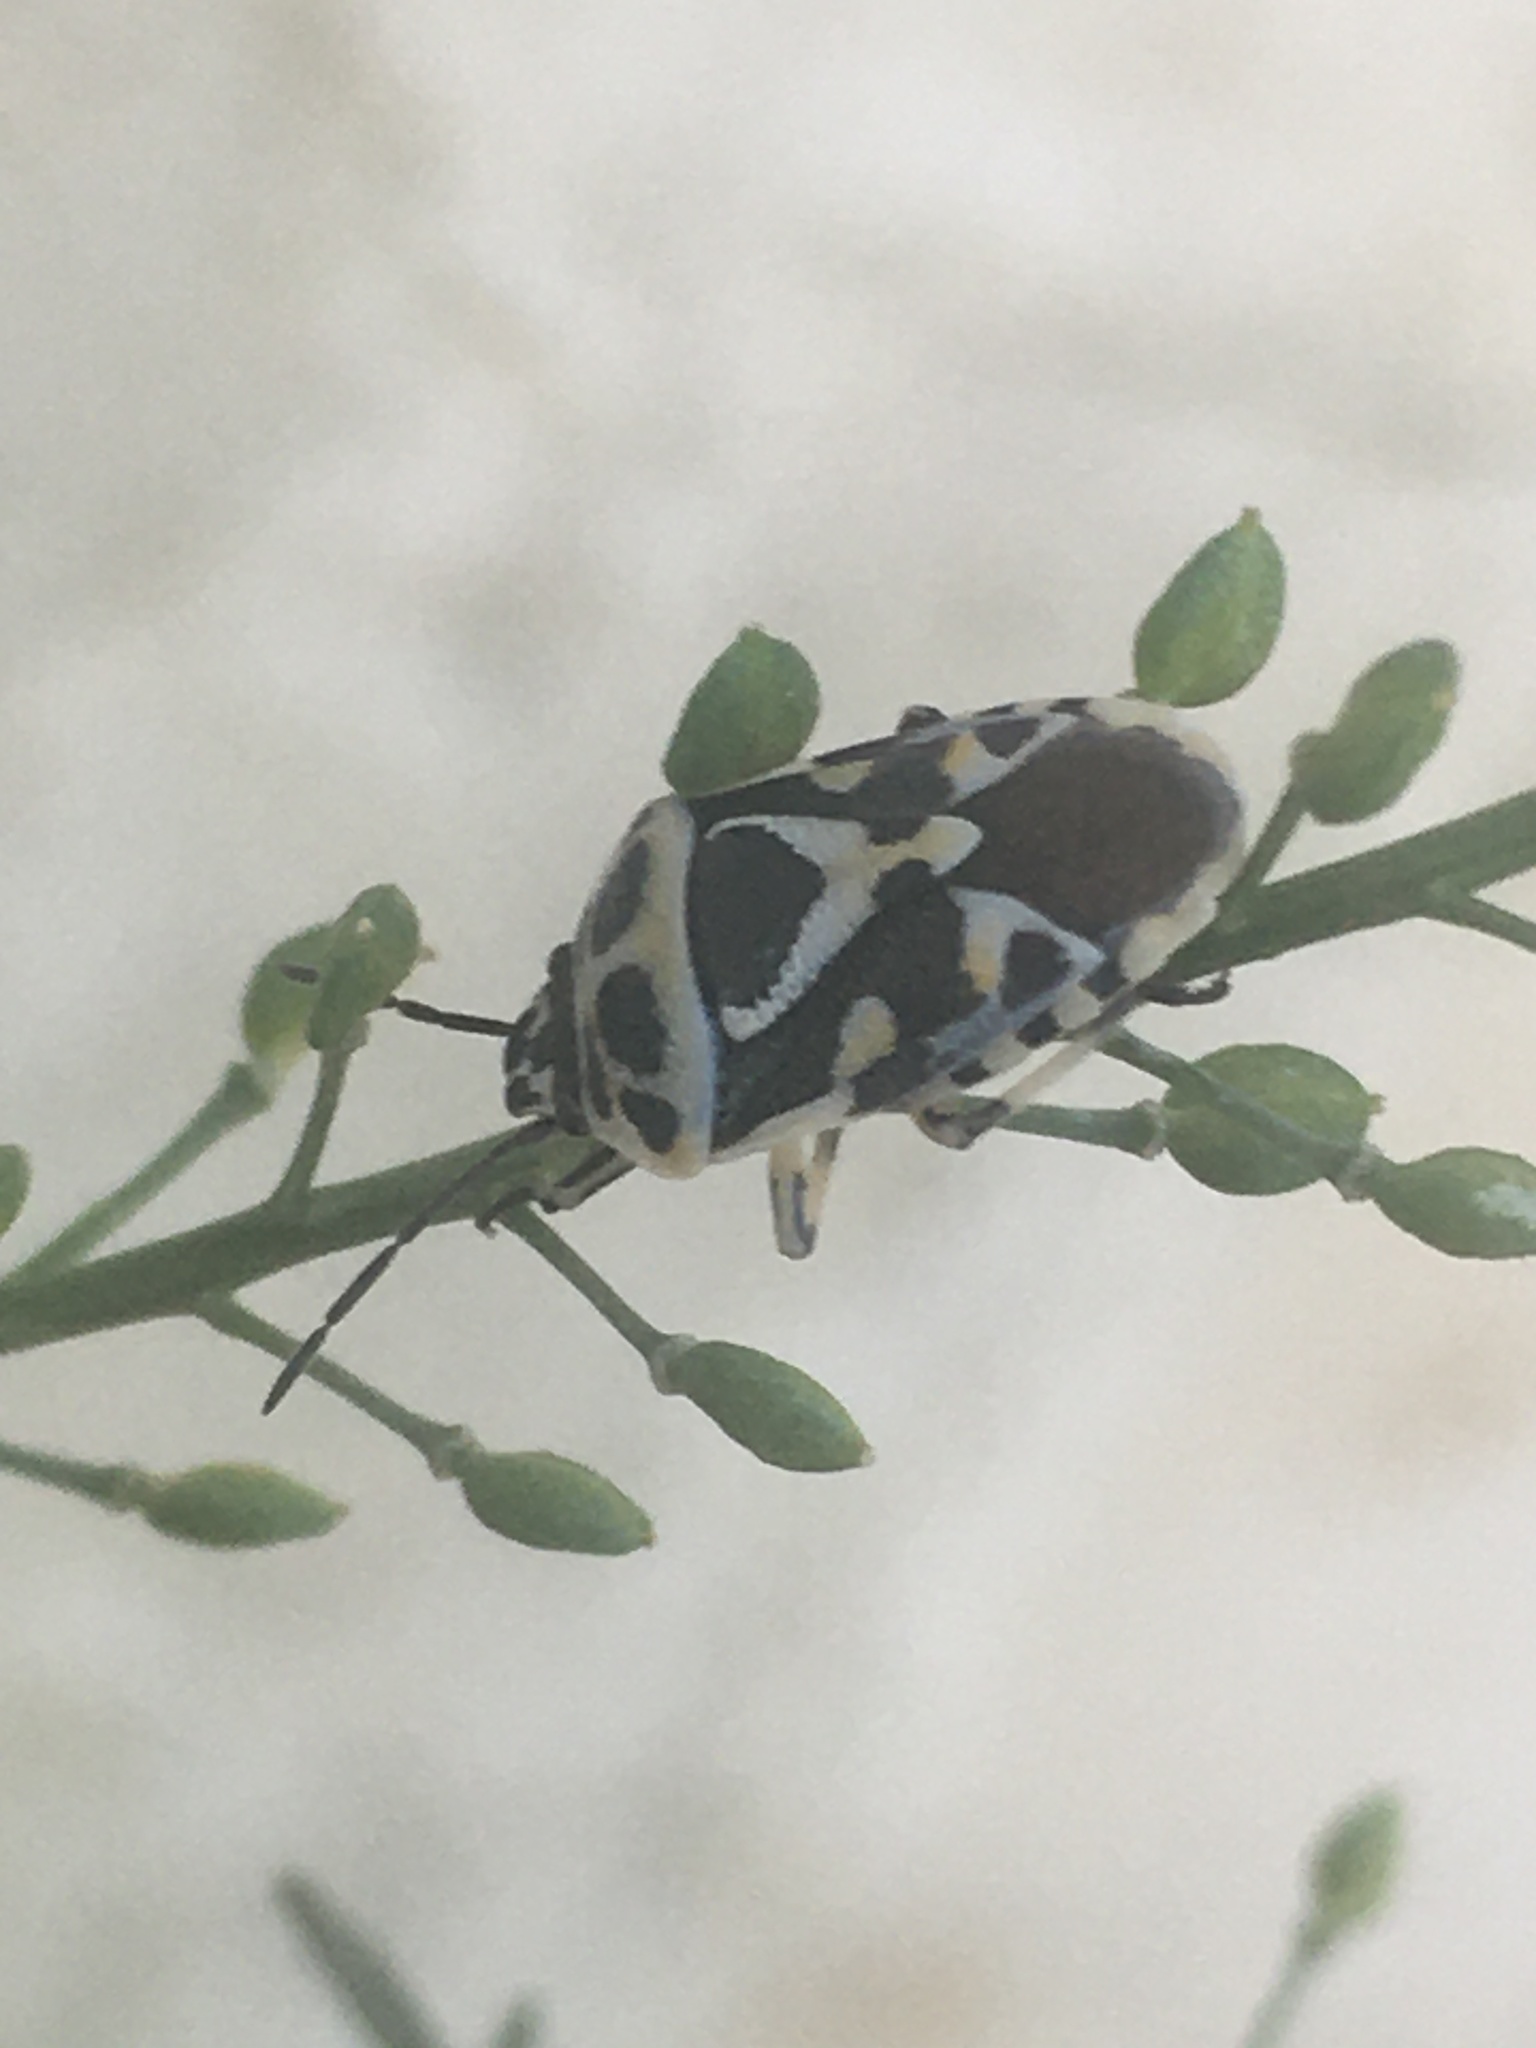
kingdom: Animalia
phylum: Arthropoda
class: Insecta
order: Hemiptera
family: Pentatomidae
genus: Eurydema
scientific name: Eurydema ornata
